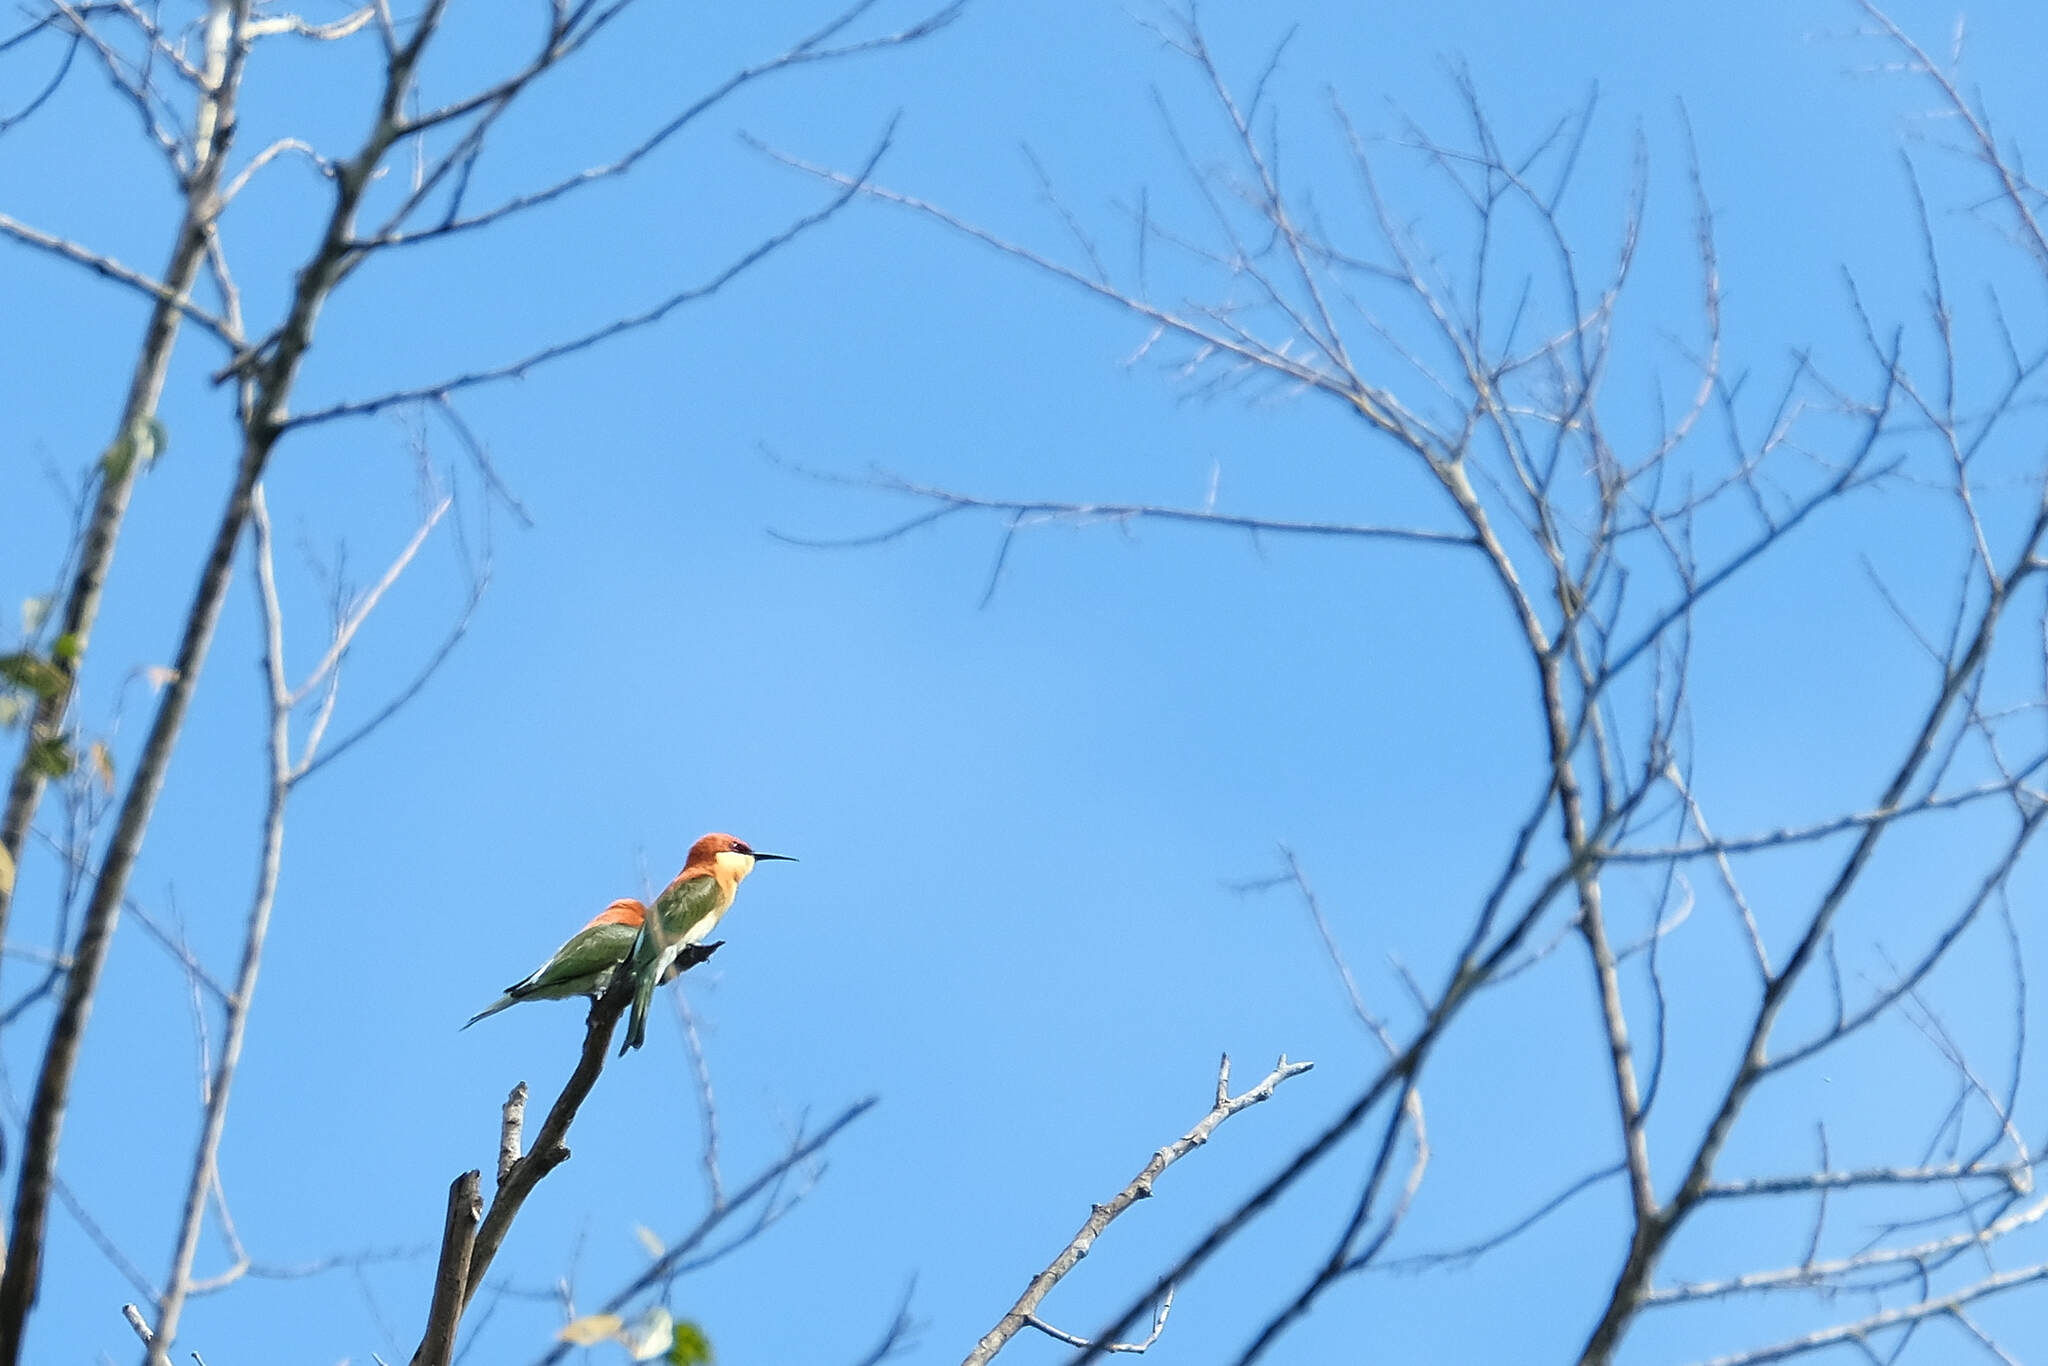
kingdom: Animalia
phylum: Chordata
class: Aves
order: Coraciiformes
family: Meropidae
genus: Merops
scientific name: Merops leschenaulti
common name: Chestnut-headed bee-eater
